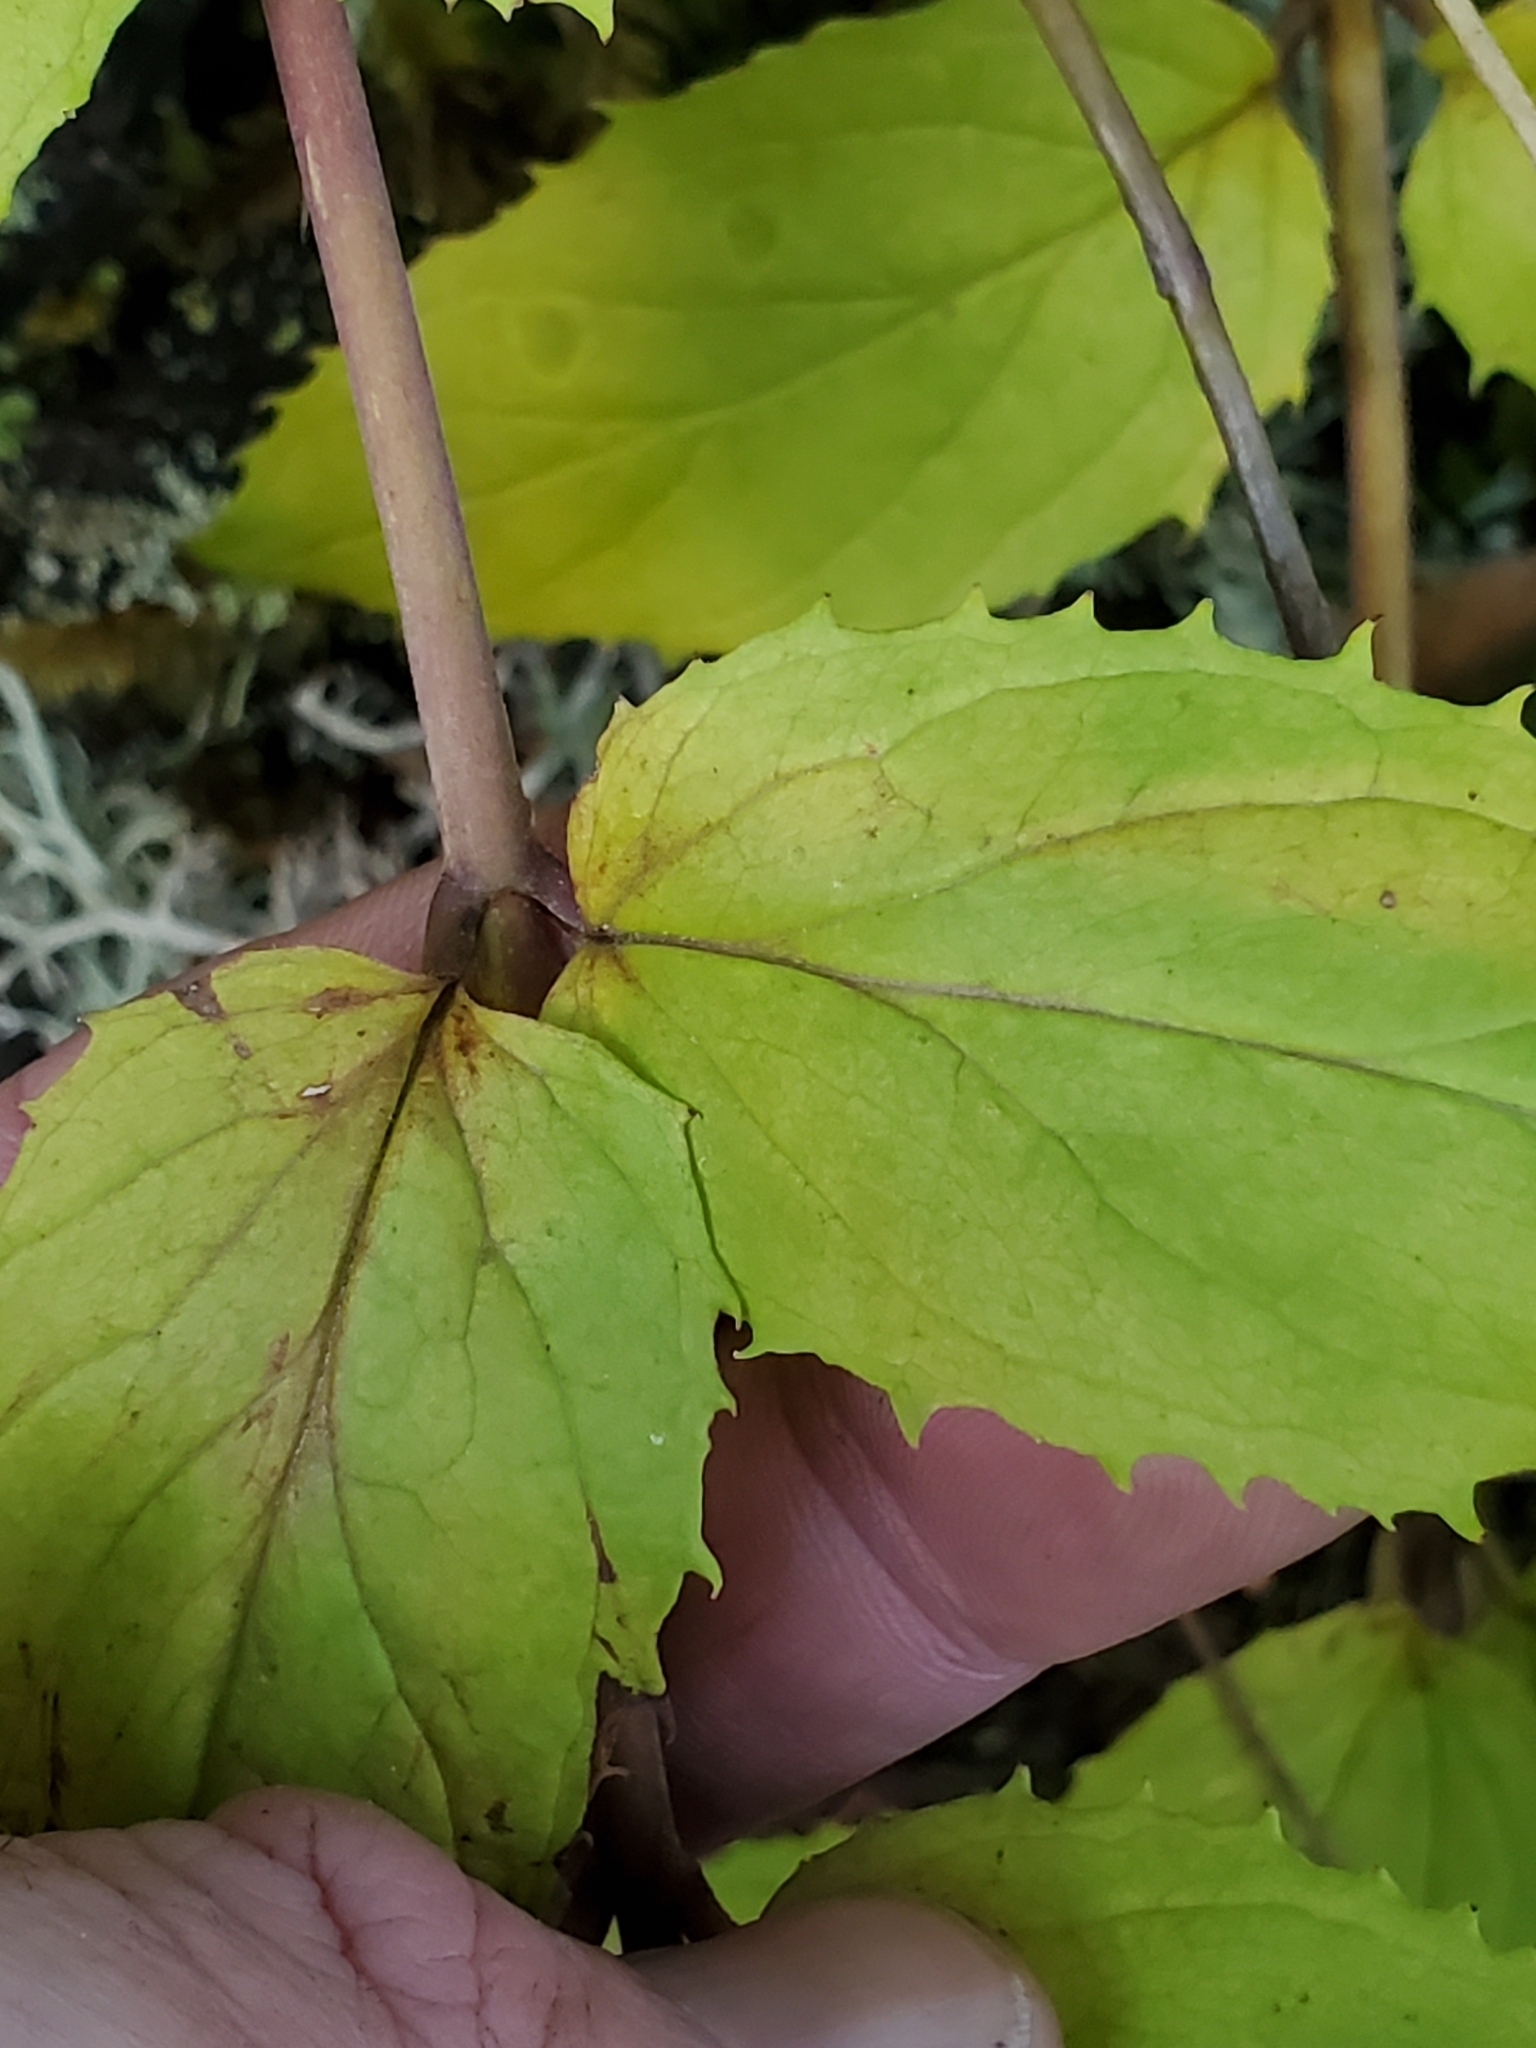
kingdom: Plantae
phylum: Tracheophyta
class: Magnoliopsida
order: Lamiales
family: Plantaginaceae
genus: Nothochelone
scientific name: Nothochelone nemorosa
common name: Woodland beardtongue
